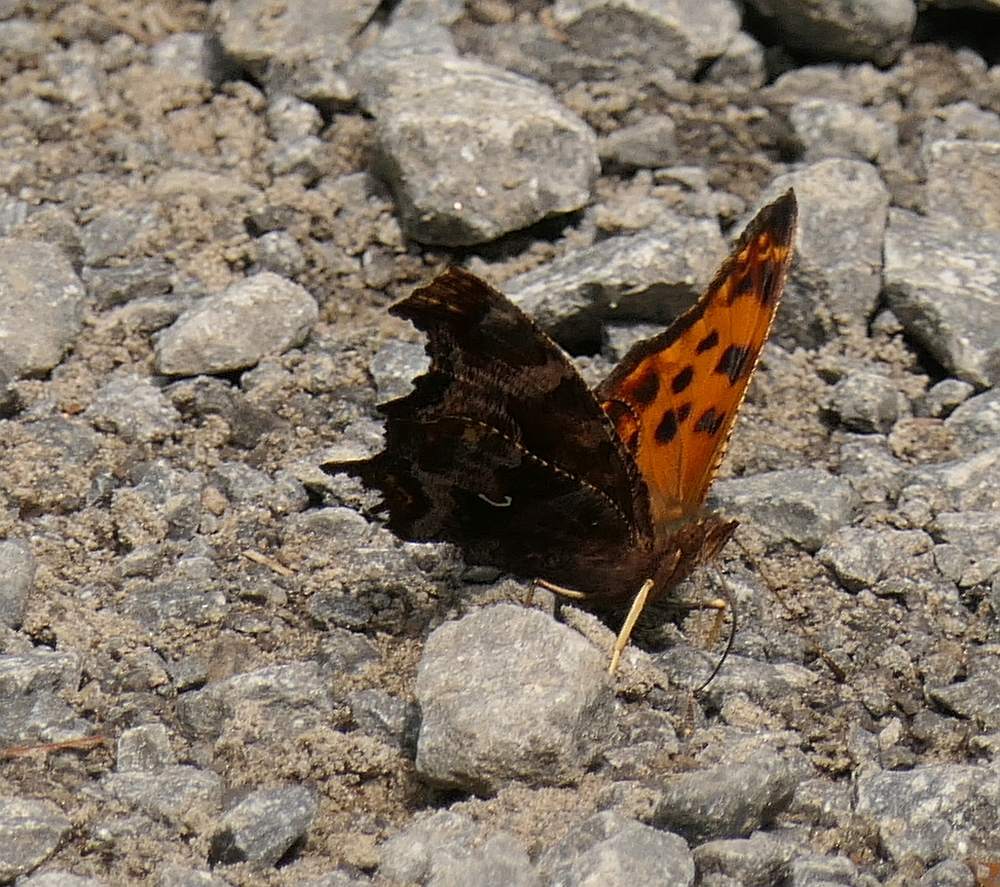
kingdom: Animalia
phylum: Arthropoda
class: Insecta
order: Lepidoptera
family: Nymphalidae
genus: Polygonia
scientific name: Polygonia comma
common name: Eastern comma
